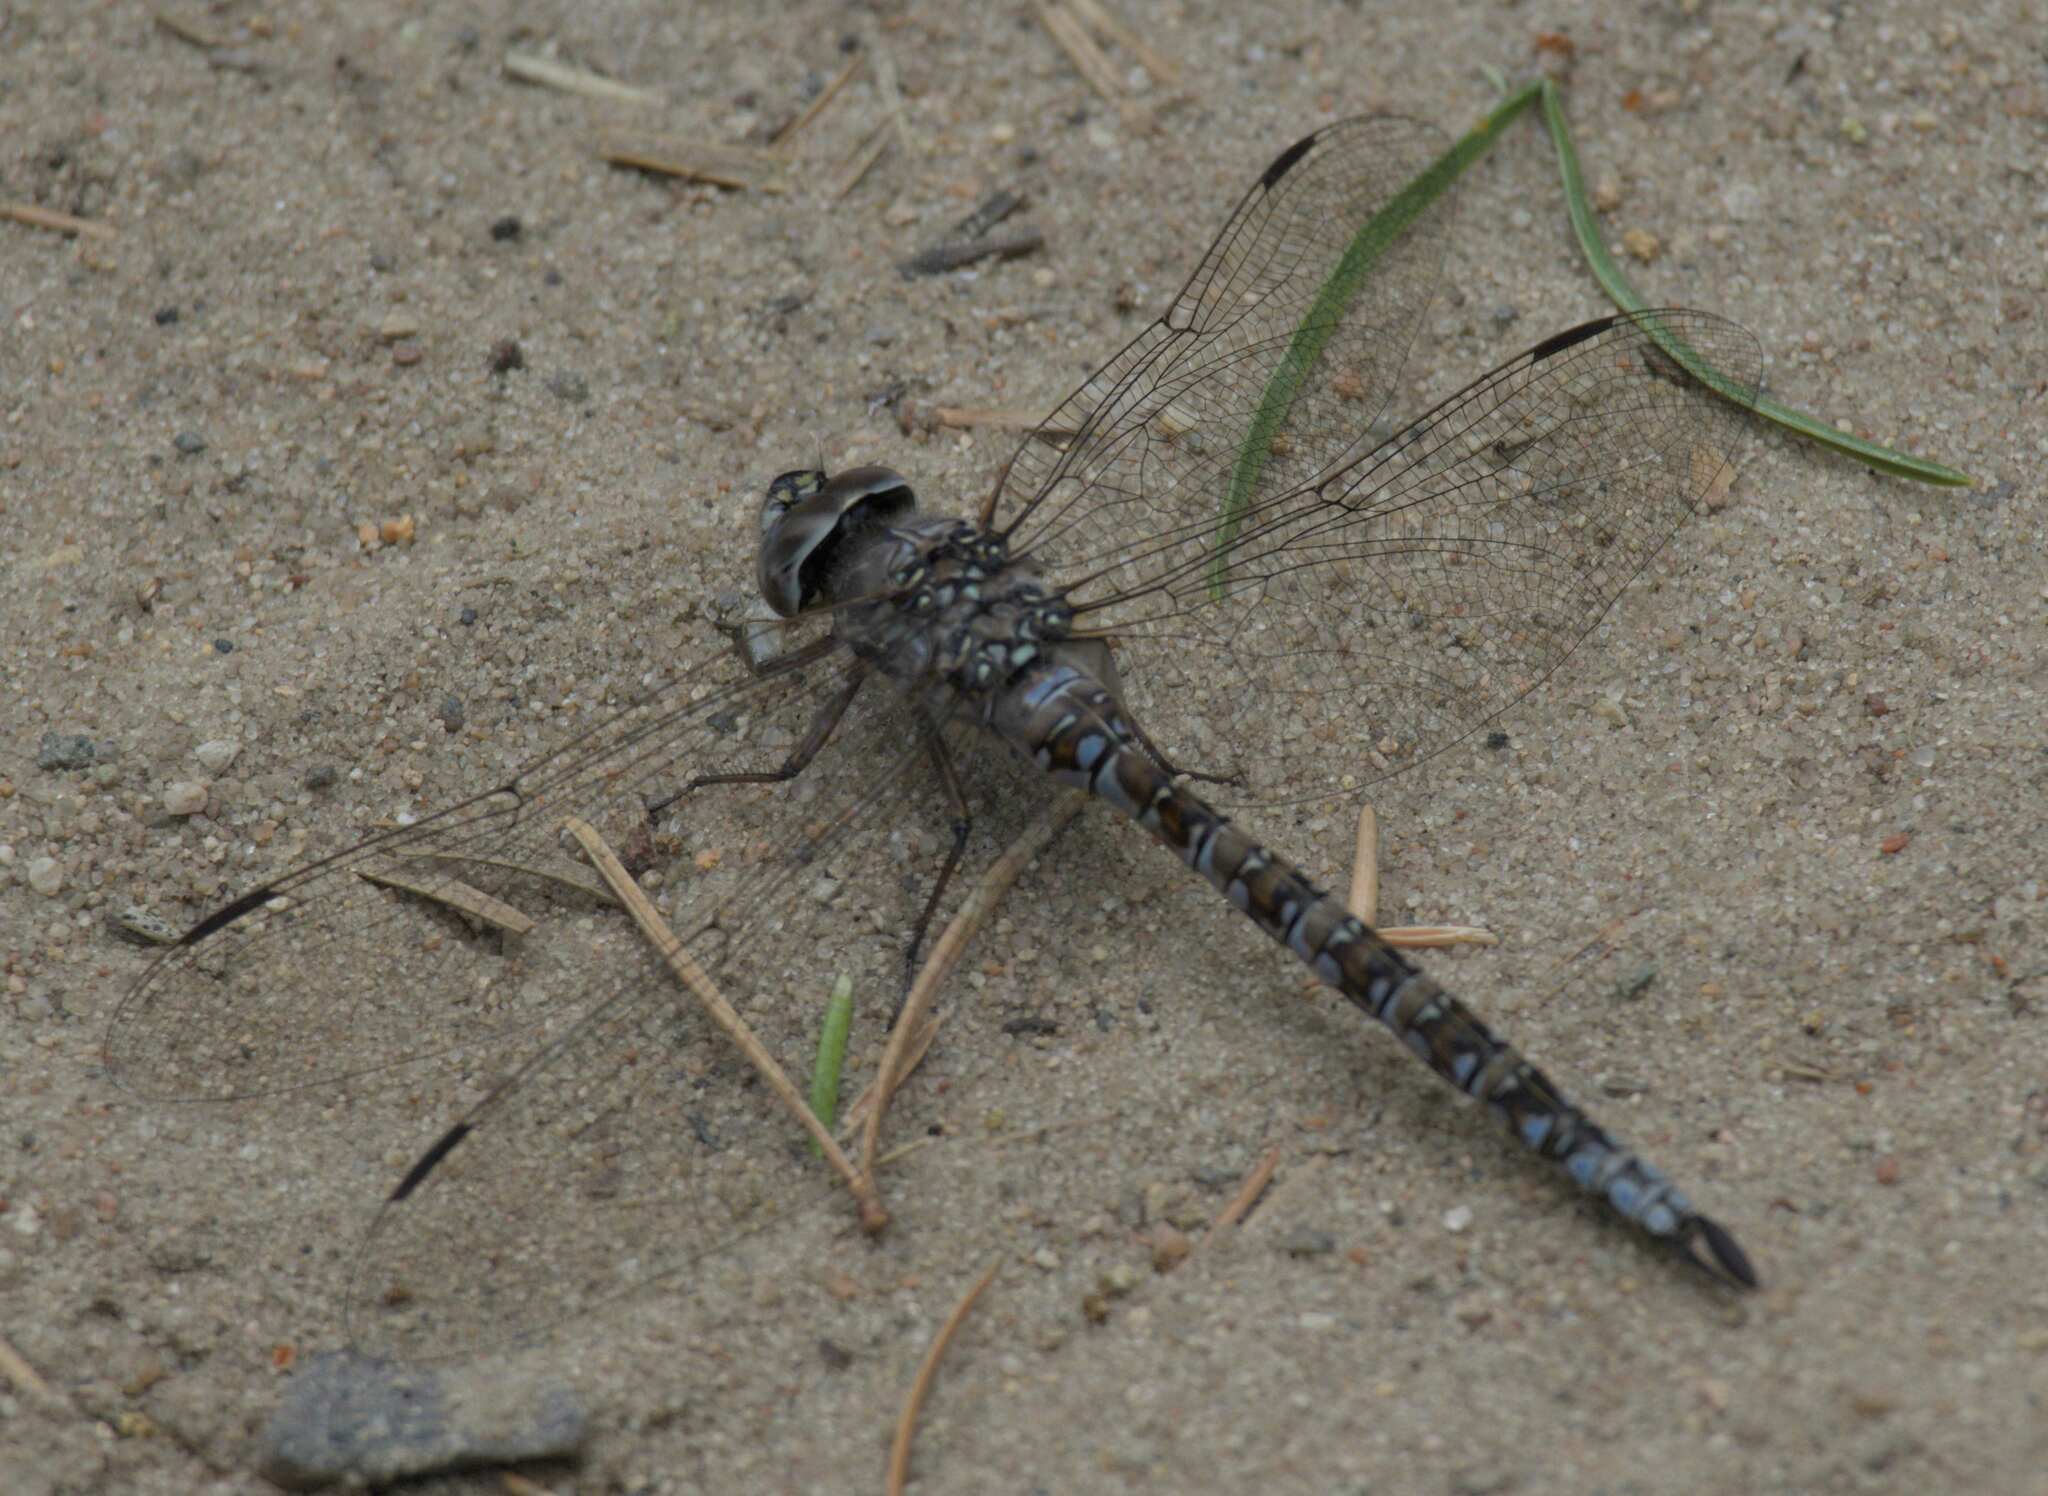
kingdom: Animalia
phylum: Arthropoda
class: Insecta
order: Odonata
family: Aeshnidae
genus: Aeshna
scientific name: Aeshna sitchensis
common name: Zigzag darner
